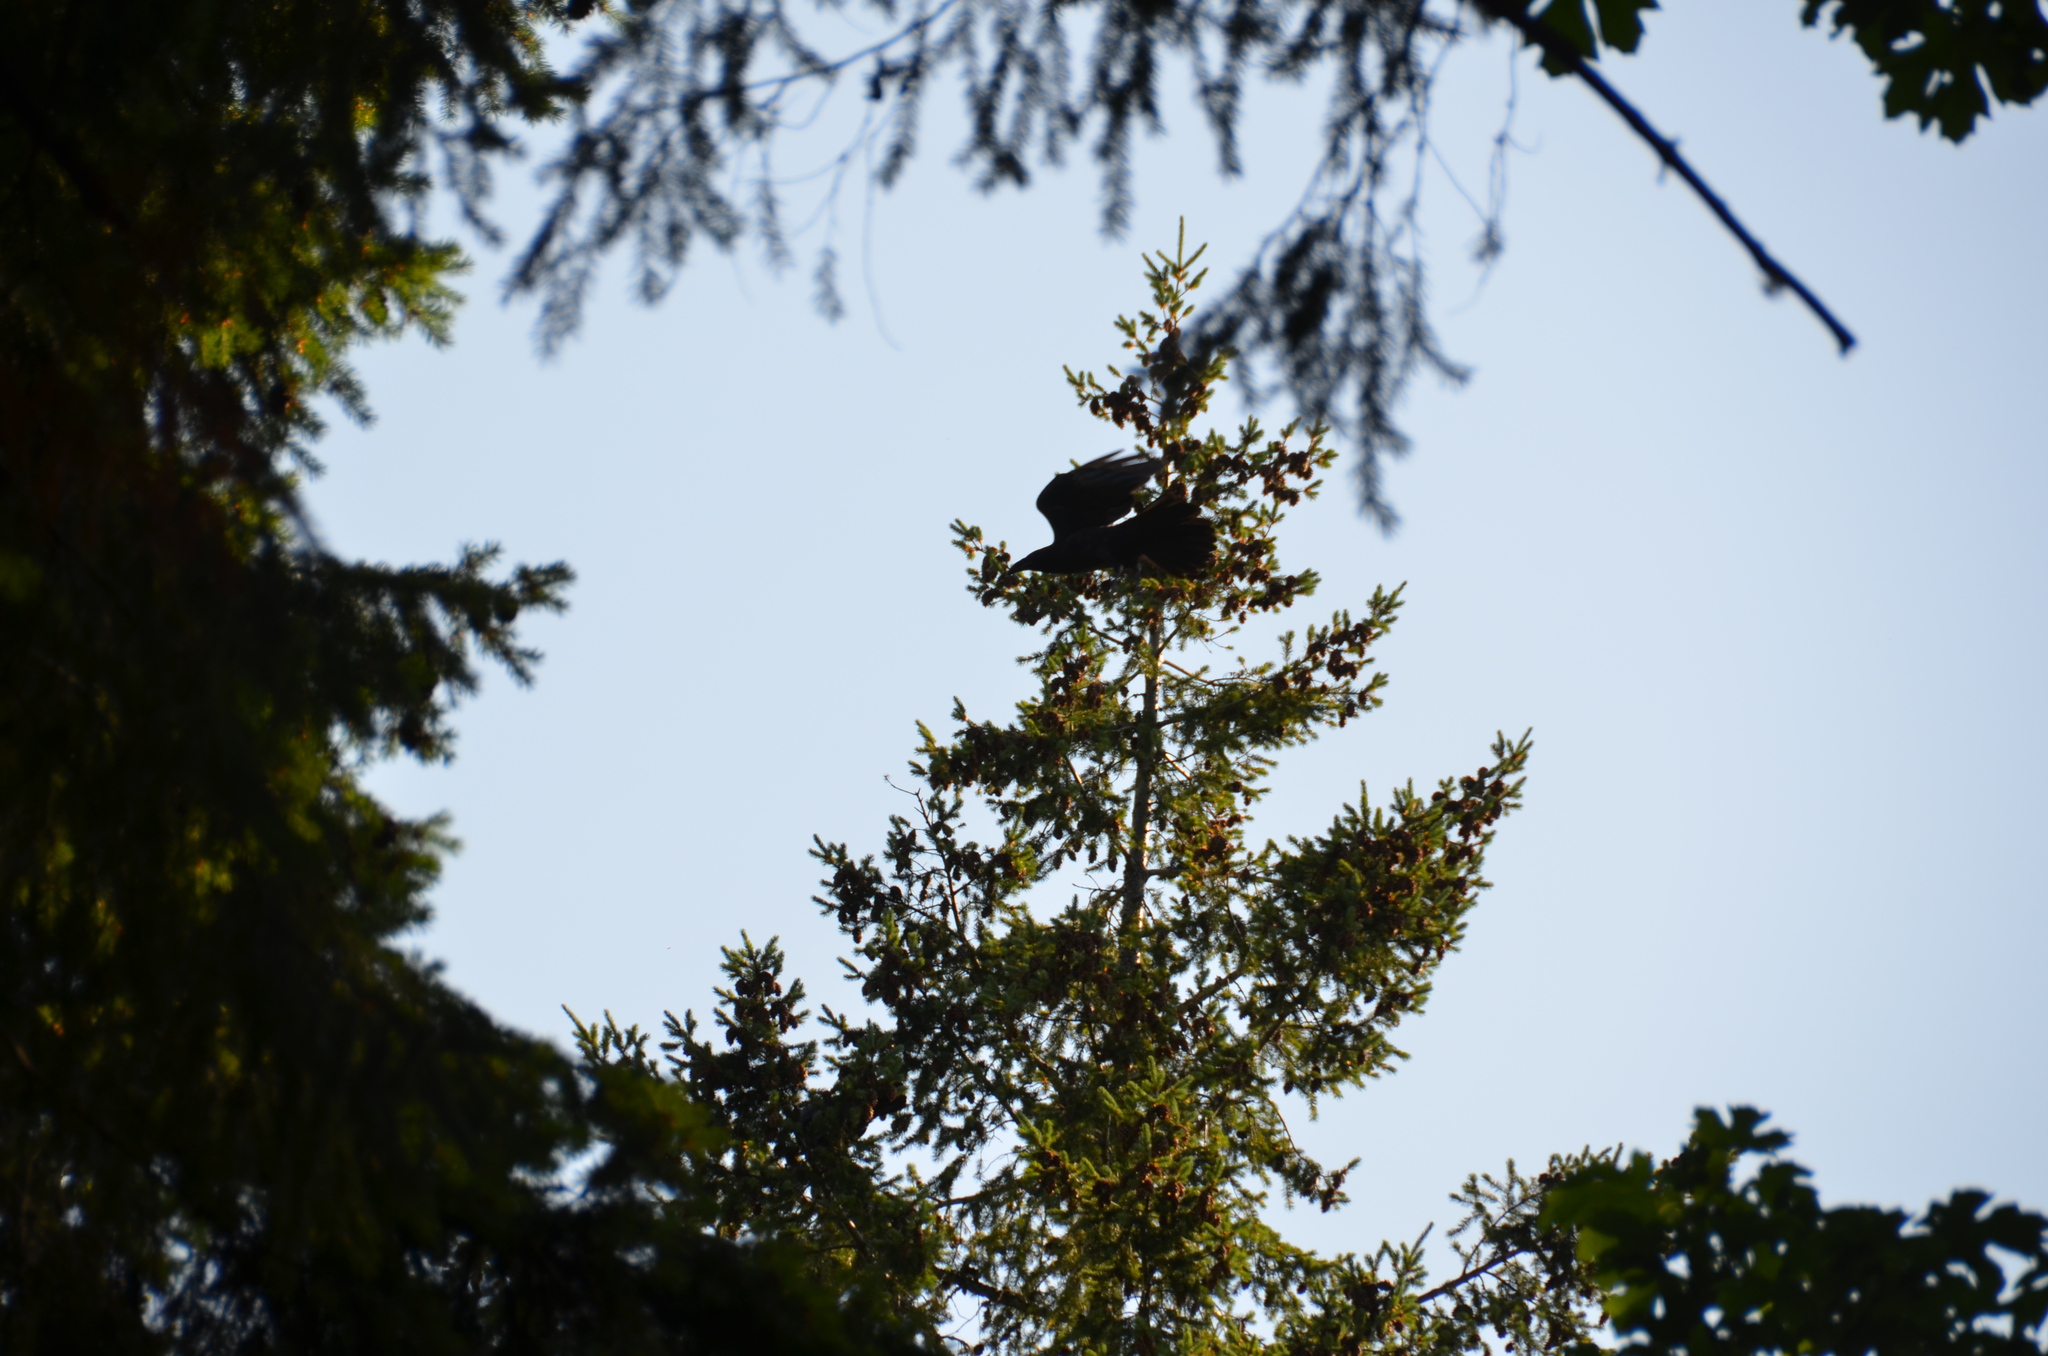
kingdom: Animalia
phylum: Chordata
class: Aves
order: Passeriformes
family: Corvidae
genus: Corvus
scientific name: Corvus corax
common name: Common raven
